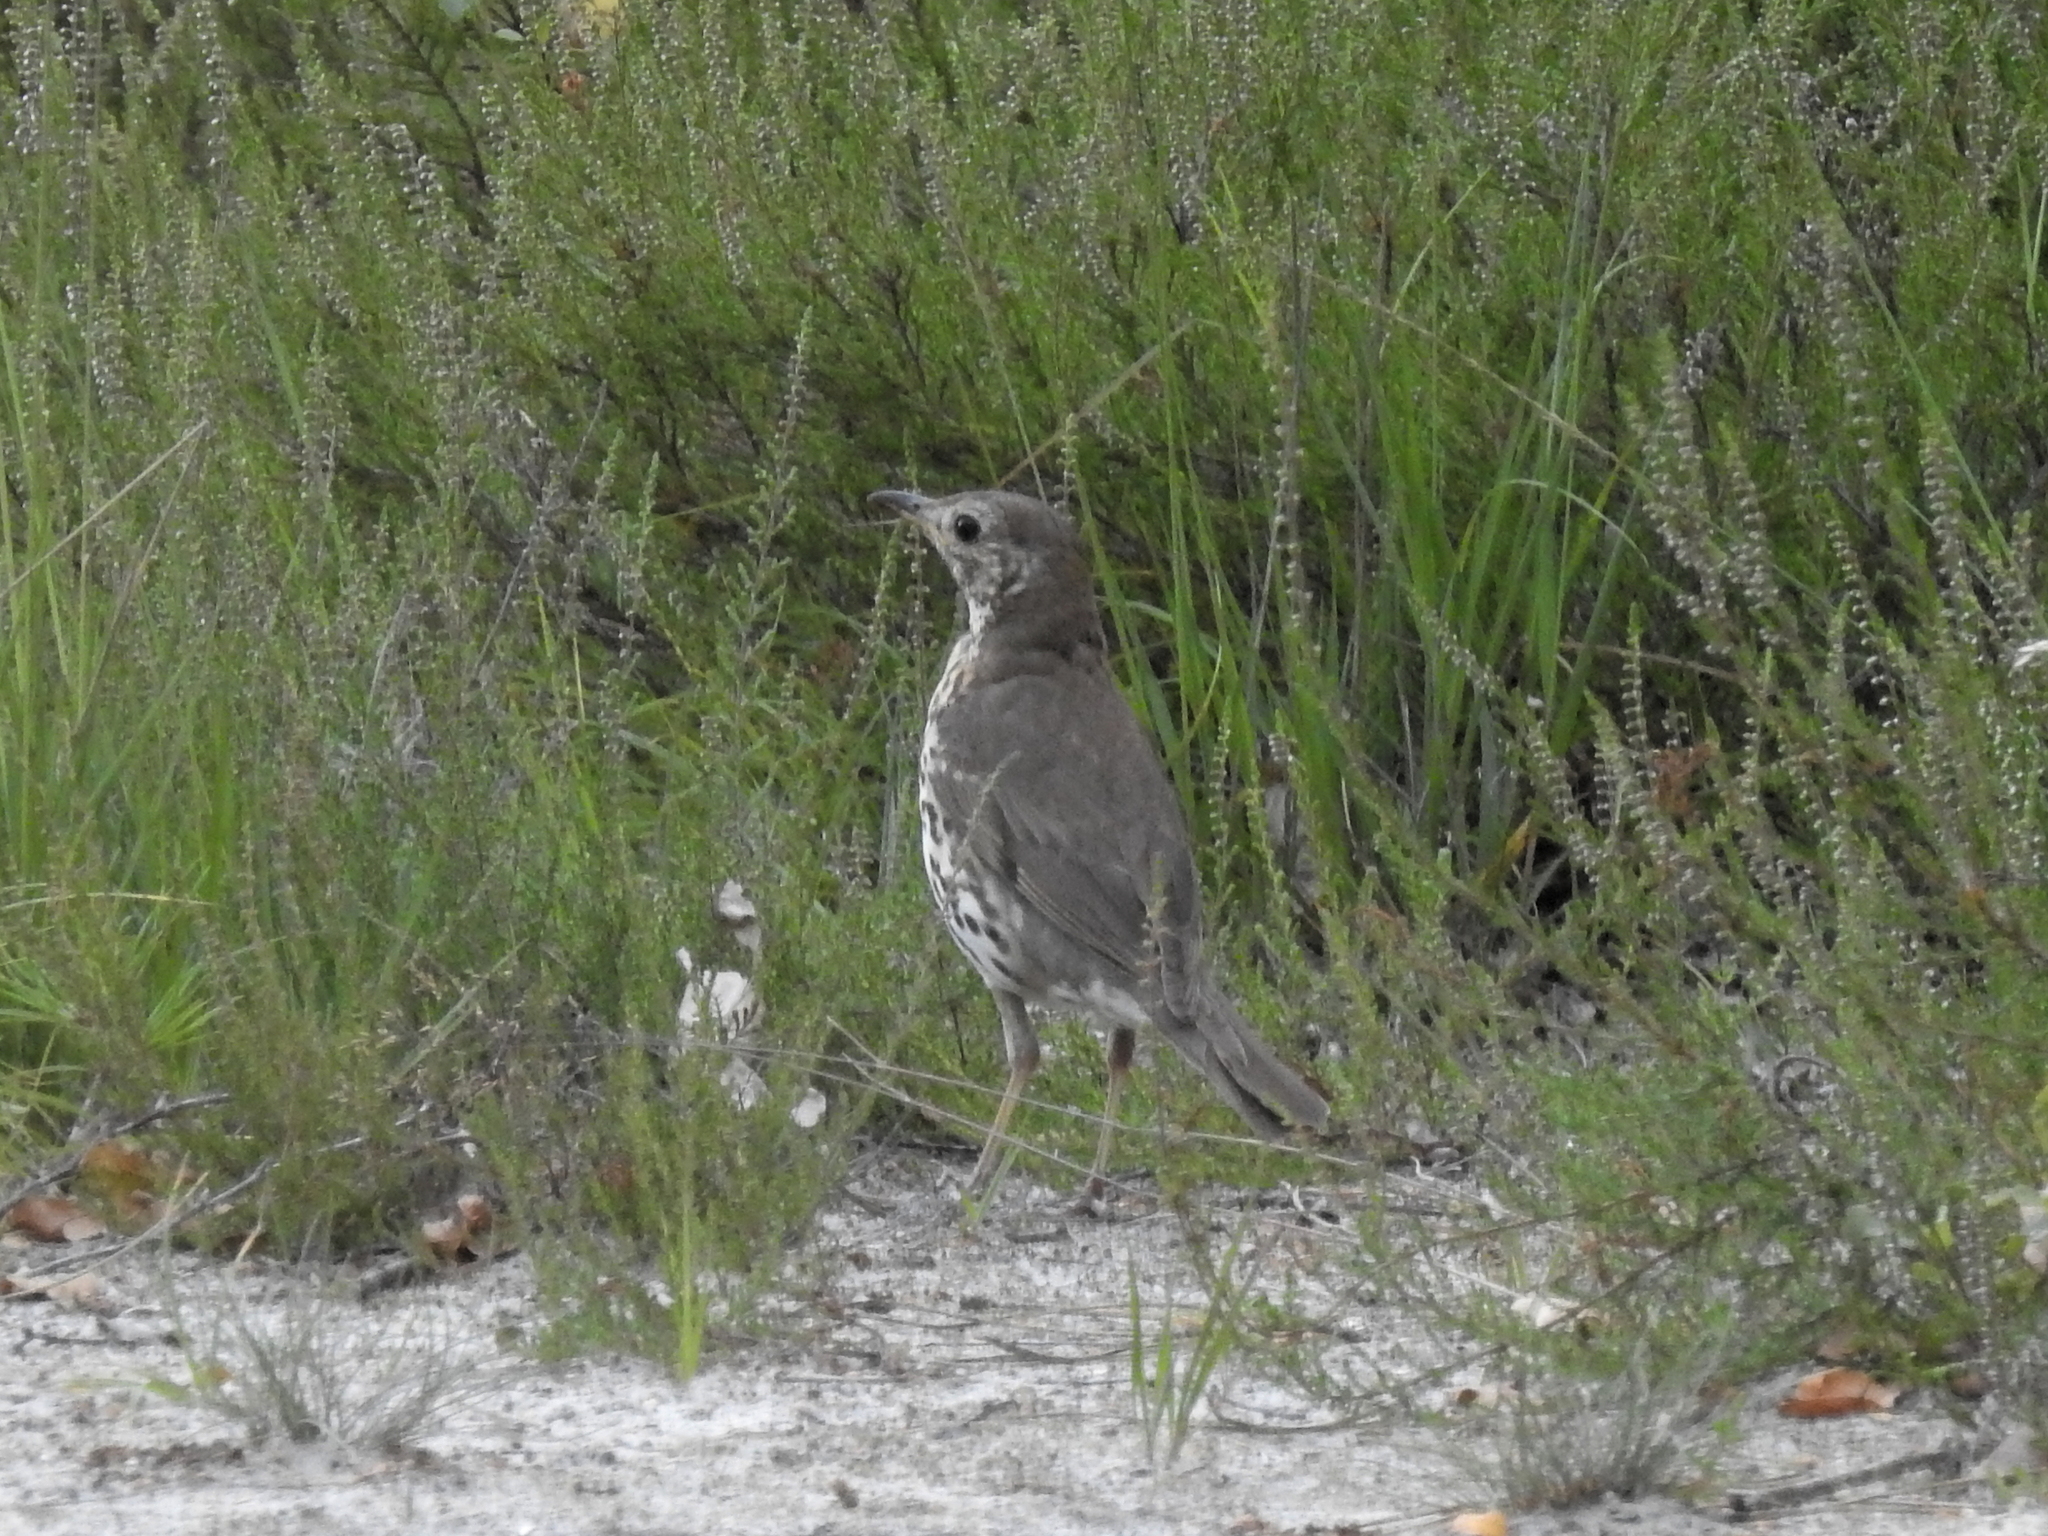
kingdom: Animalia
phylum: Chordata
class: Aves
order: Passeriformes
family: Turdidae
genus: Turdus
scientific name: Turdus philomelos
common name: Song thrush
